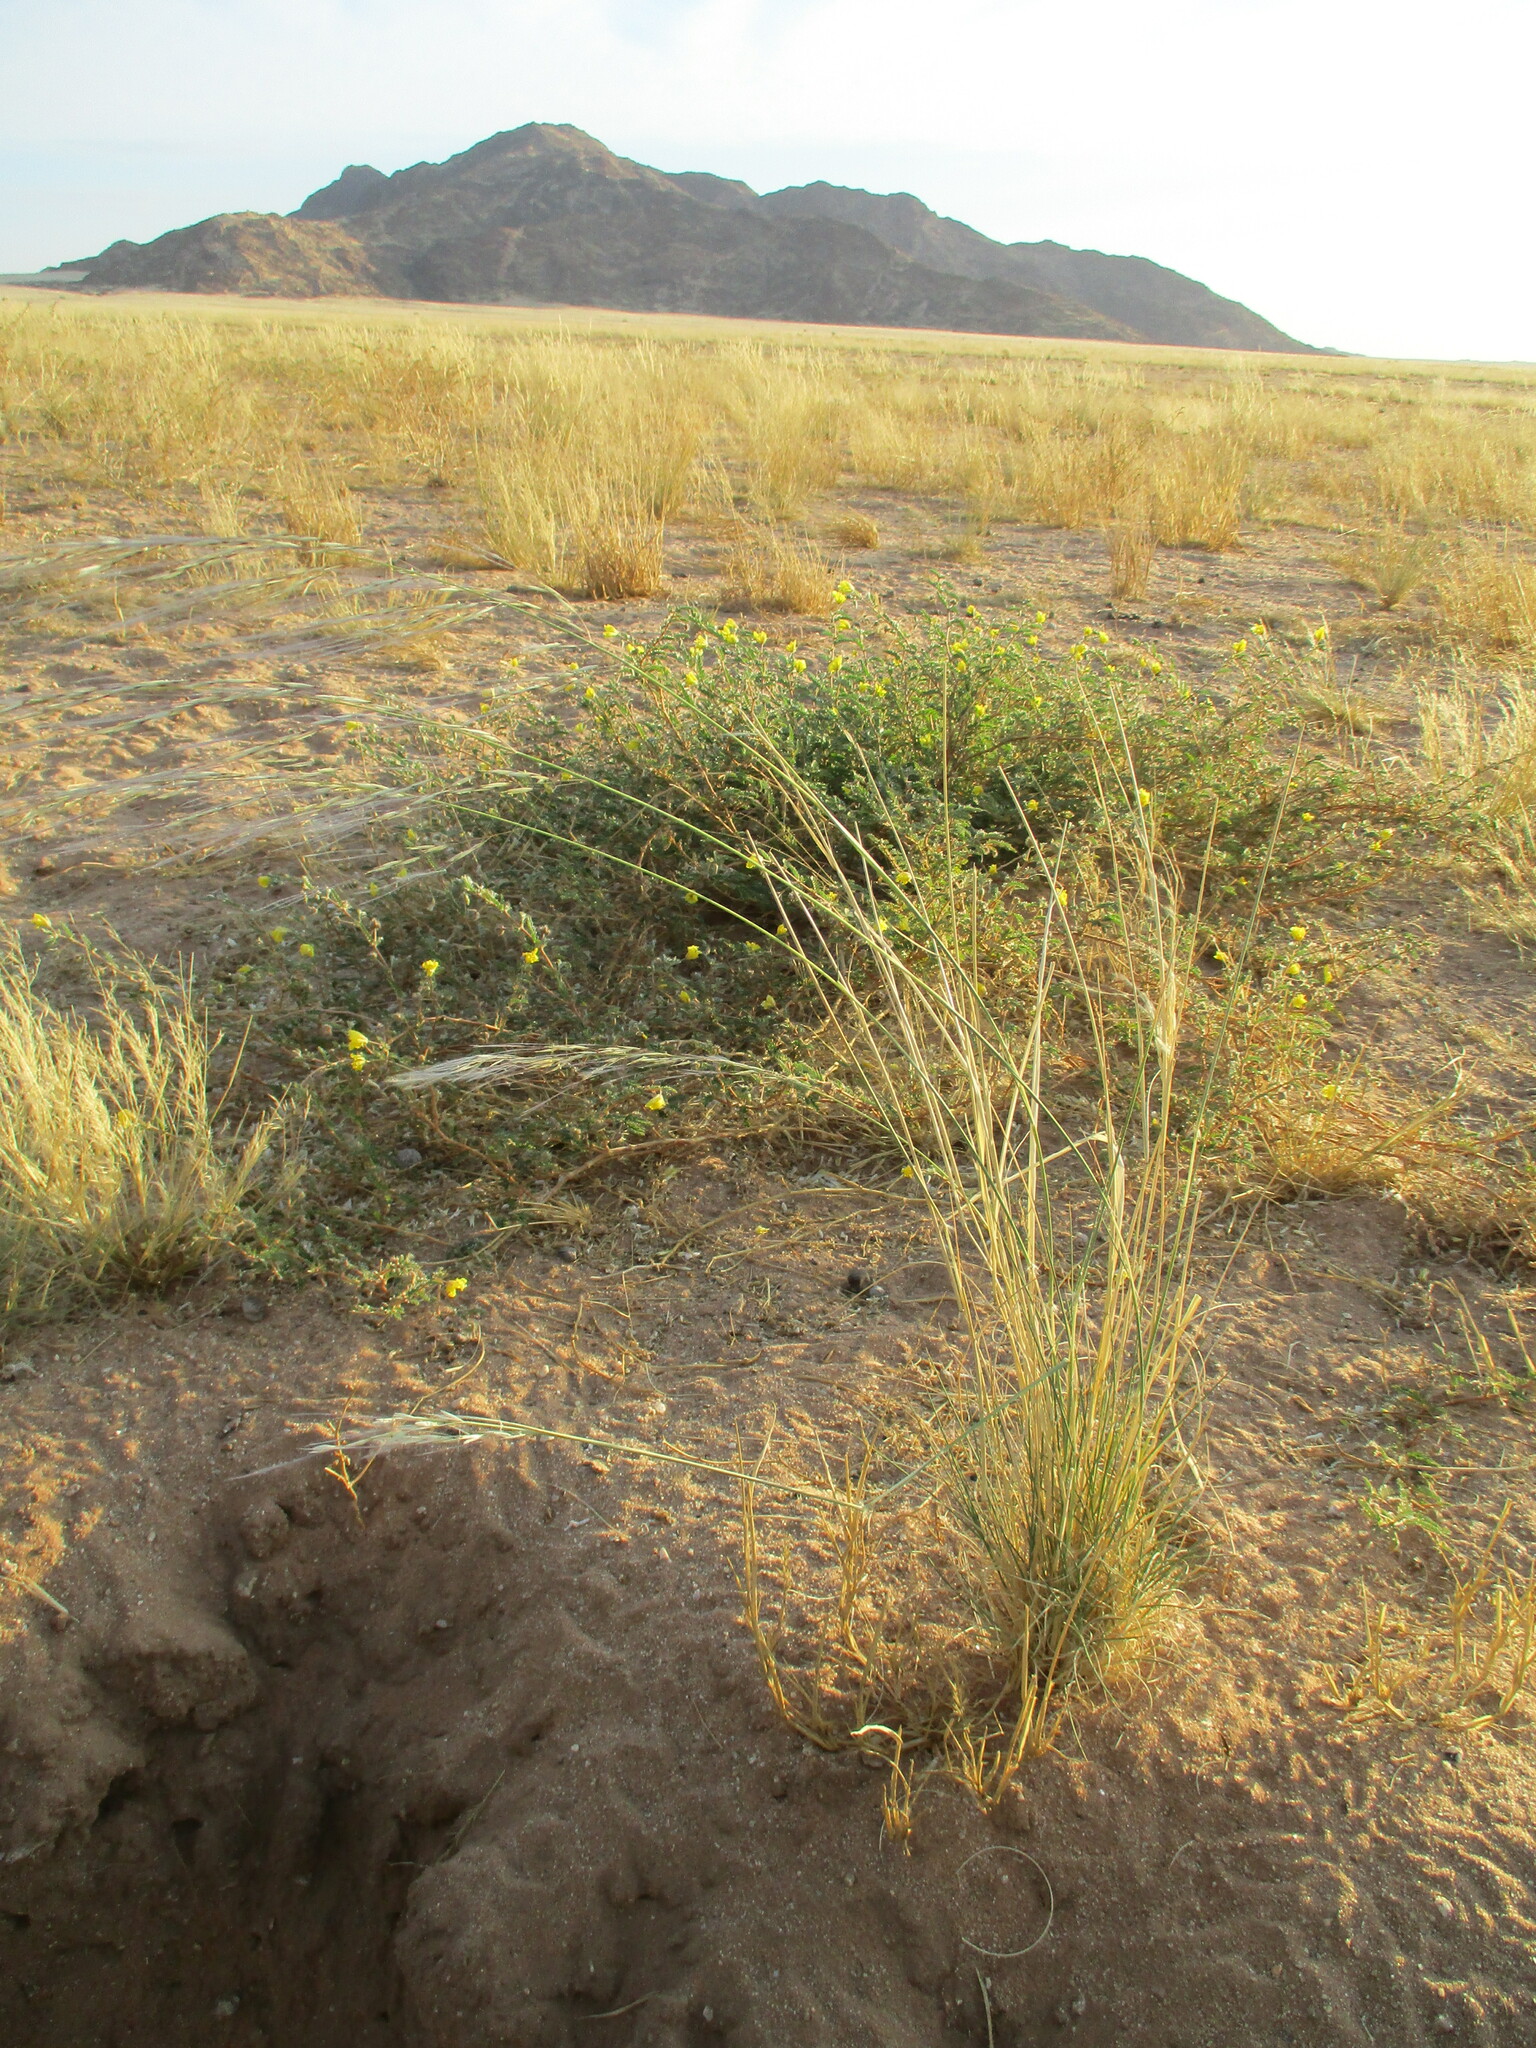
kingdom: Plantae
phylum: Tracheophyta
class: Liliopsida
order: Poales
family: Poaceae
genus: Stipagrostis
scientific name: Stipagrostis ciliata
